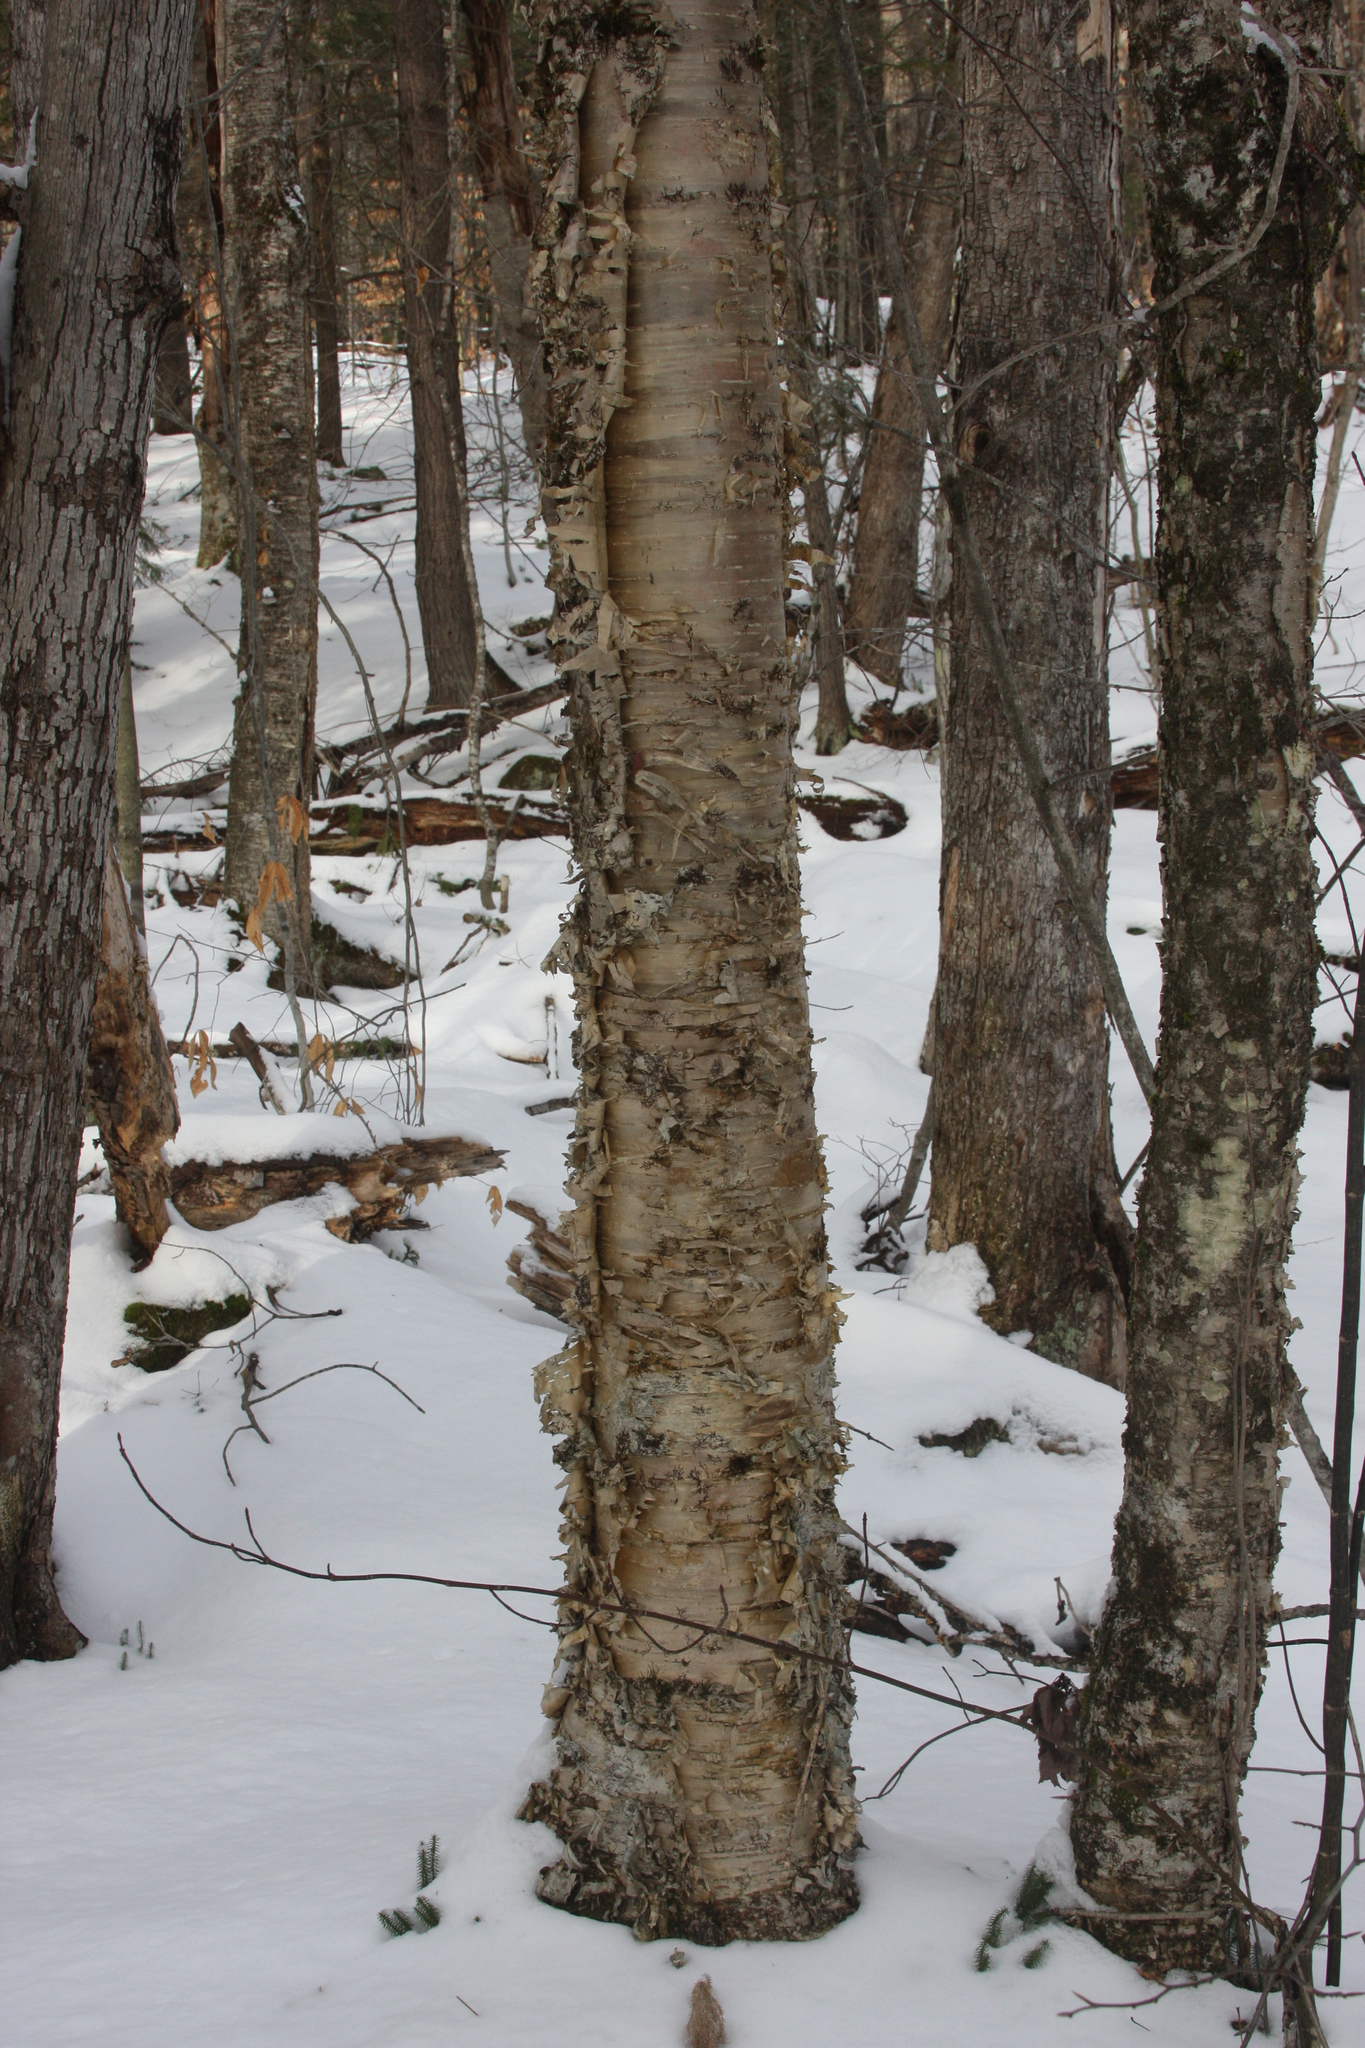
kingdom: Plantae
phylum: Tracheophyta
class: Magnoliopsida
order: Fagales
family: Betulaceae
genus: Betula
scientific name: Betula alleghaniensis
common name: Yellow birch
